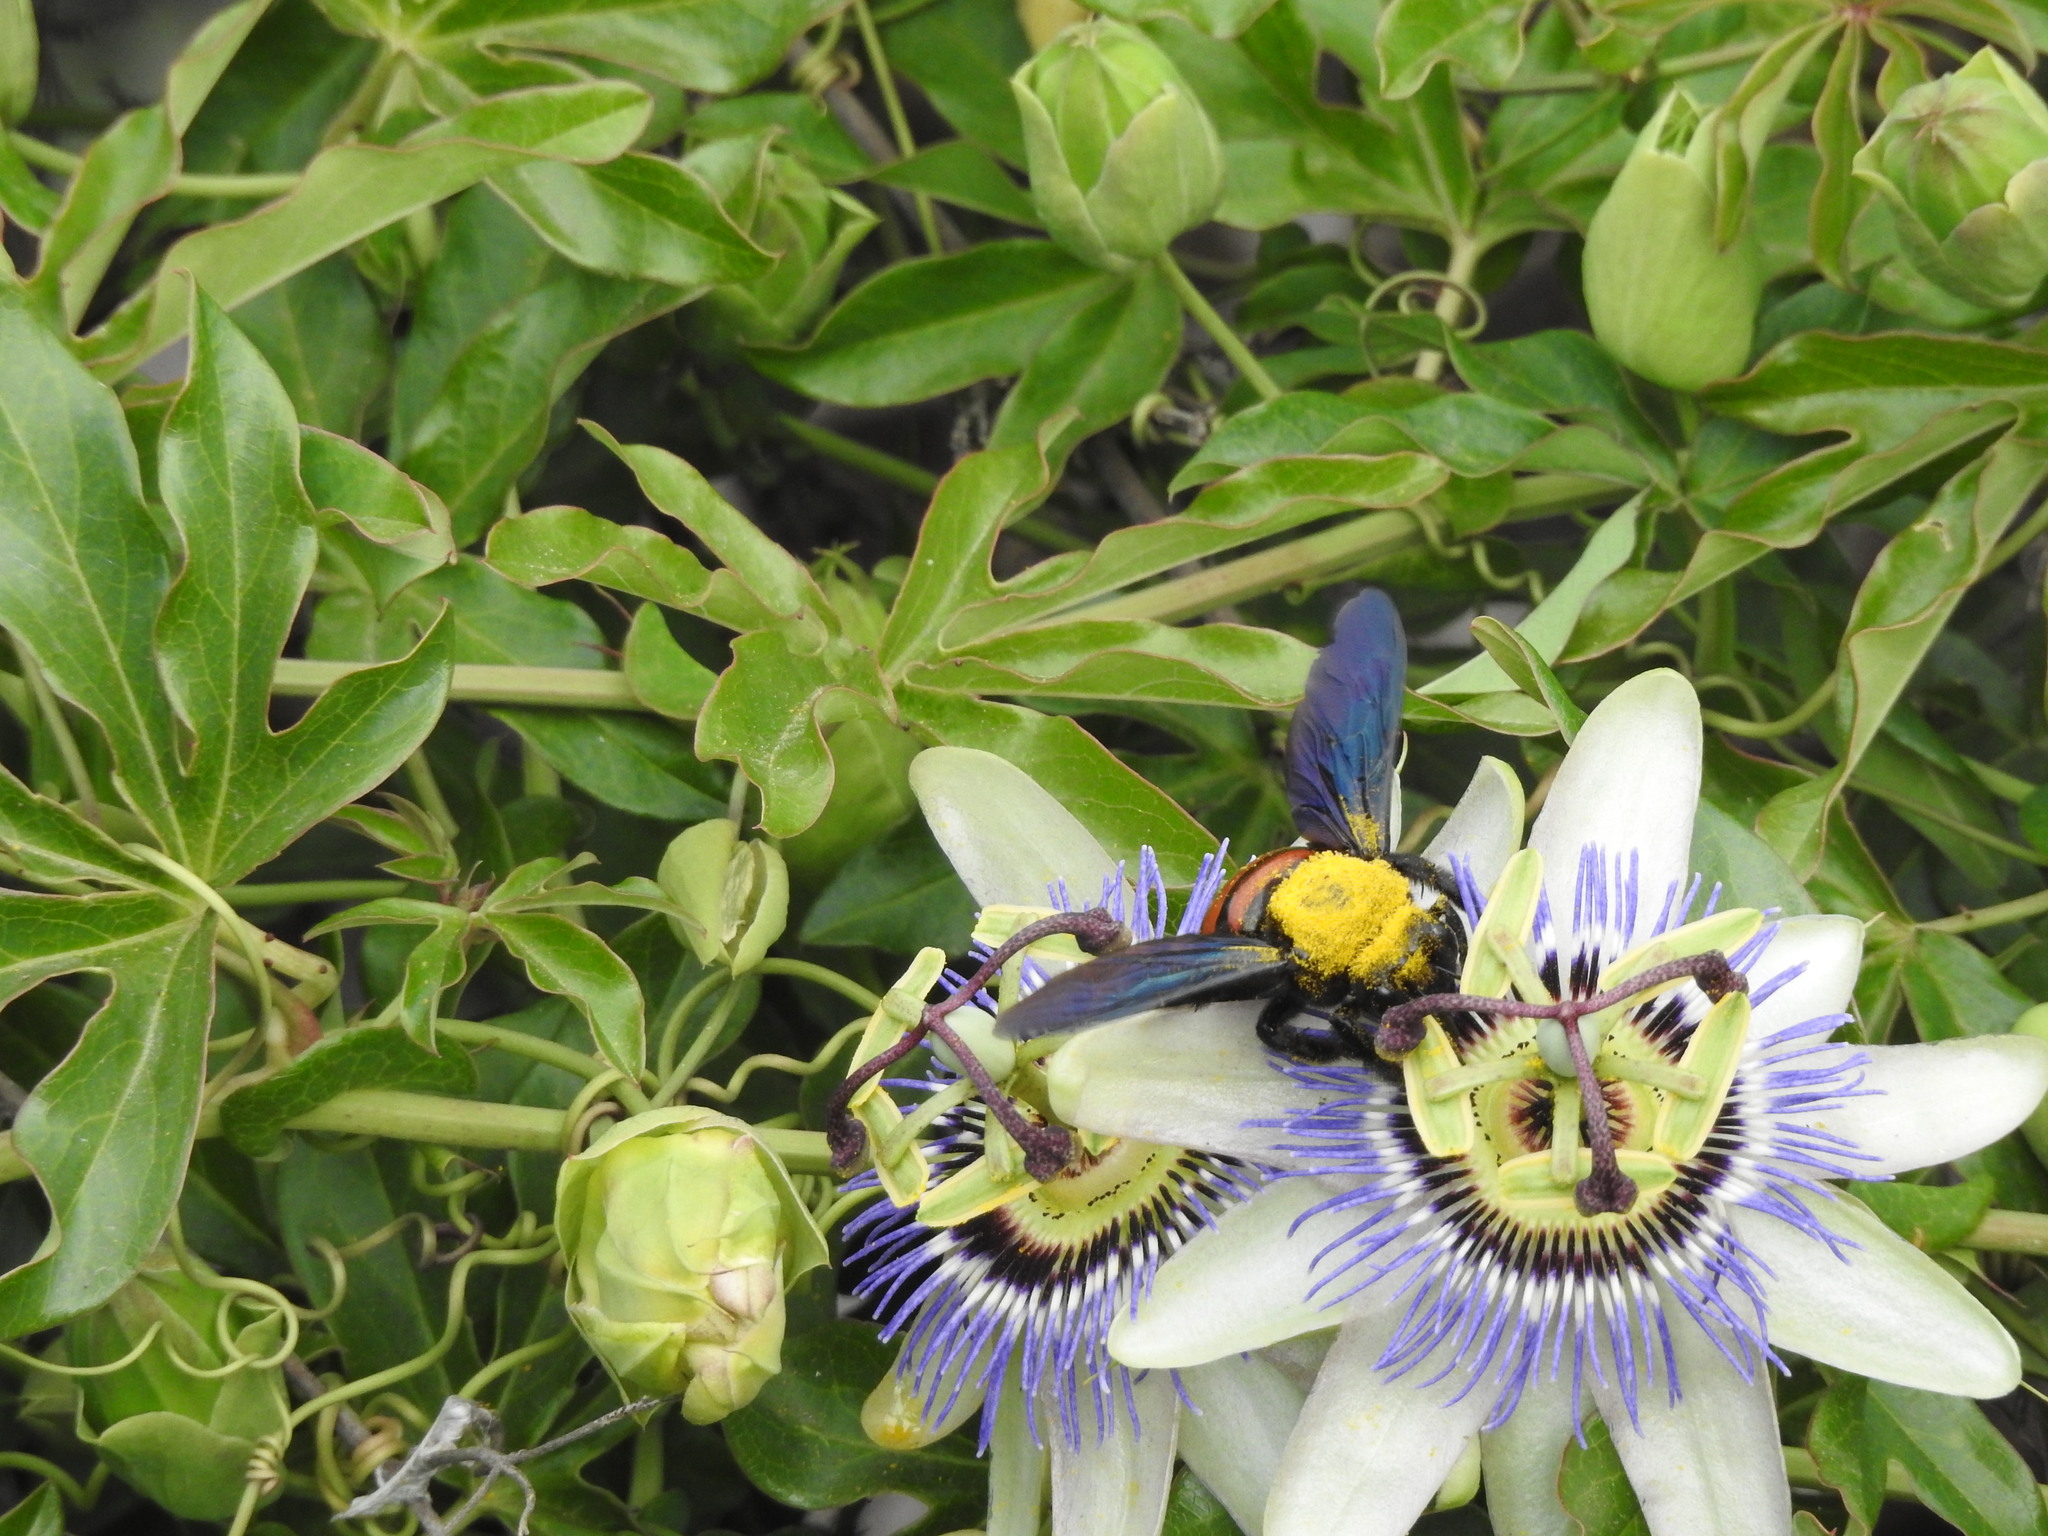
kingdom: Animalia
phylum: Arthropoda
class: Insecta
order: Hymenoptera
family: Apidae
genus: Xylocopa
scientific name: Xylocopa frontalis
